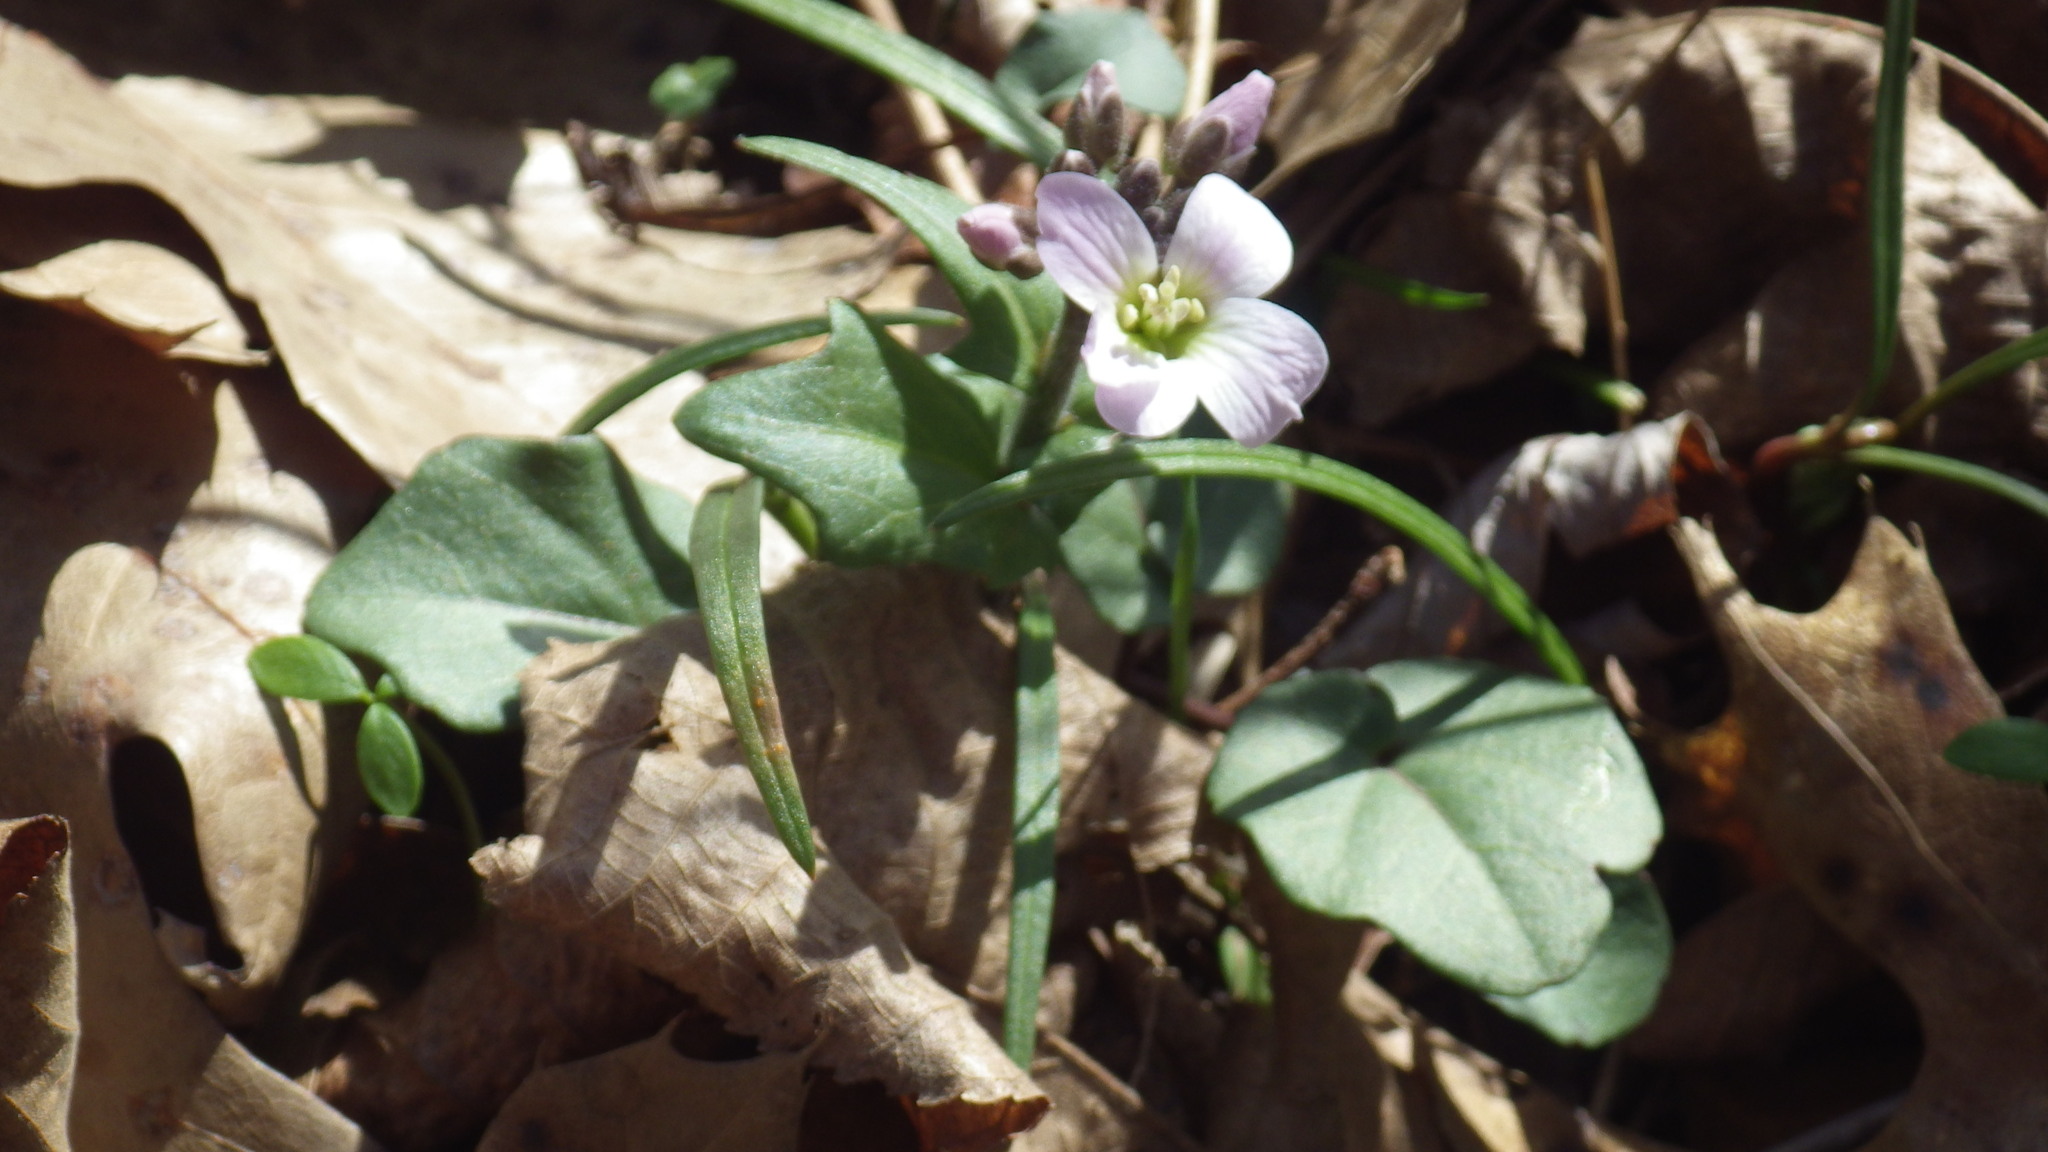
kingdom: Plantae
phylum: Tracheophyta
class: Magnoliopsida
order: Brassicales
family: Brassicaceae
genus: Cardamine
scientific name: Cardamine douglassii
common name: Purple cress
